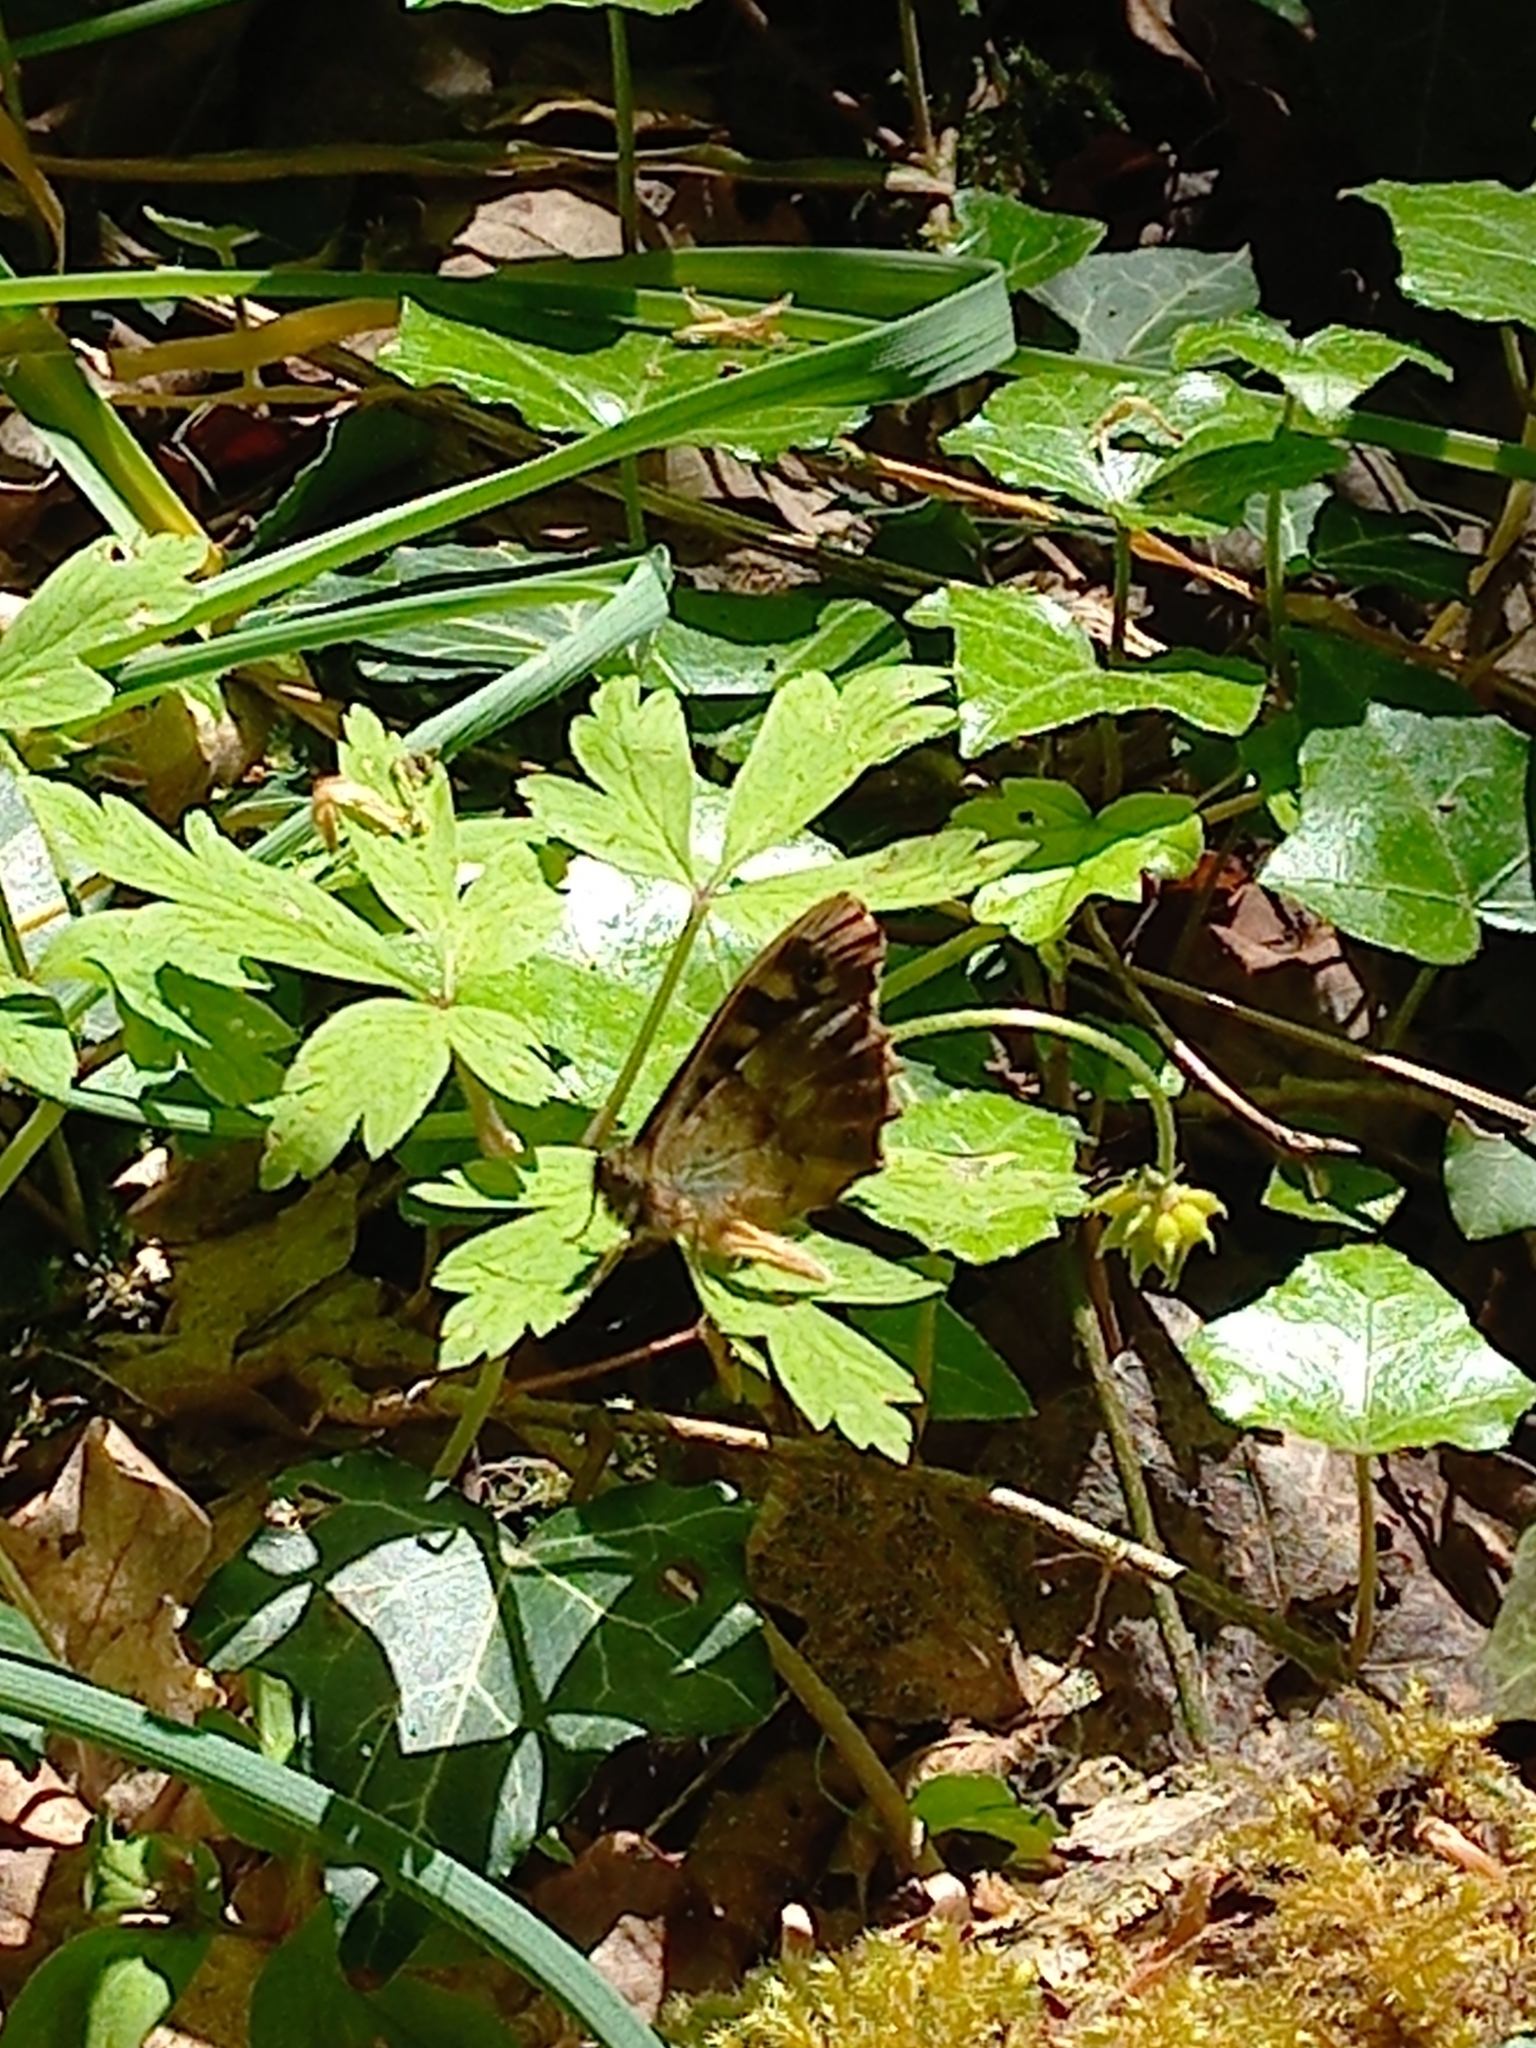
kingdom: Animalia
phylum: Arthropoda
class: Insecta
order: Lepidoptera
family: Nymphalidae
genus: Pararge
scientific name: Pararge aegeria
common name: Speckled wood
